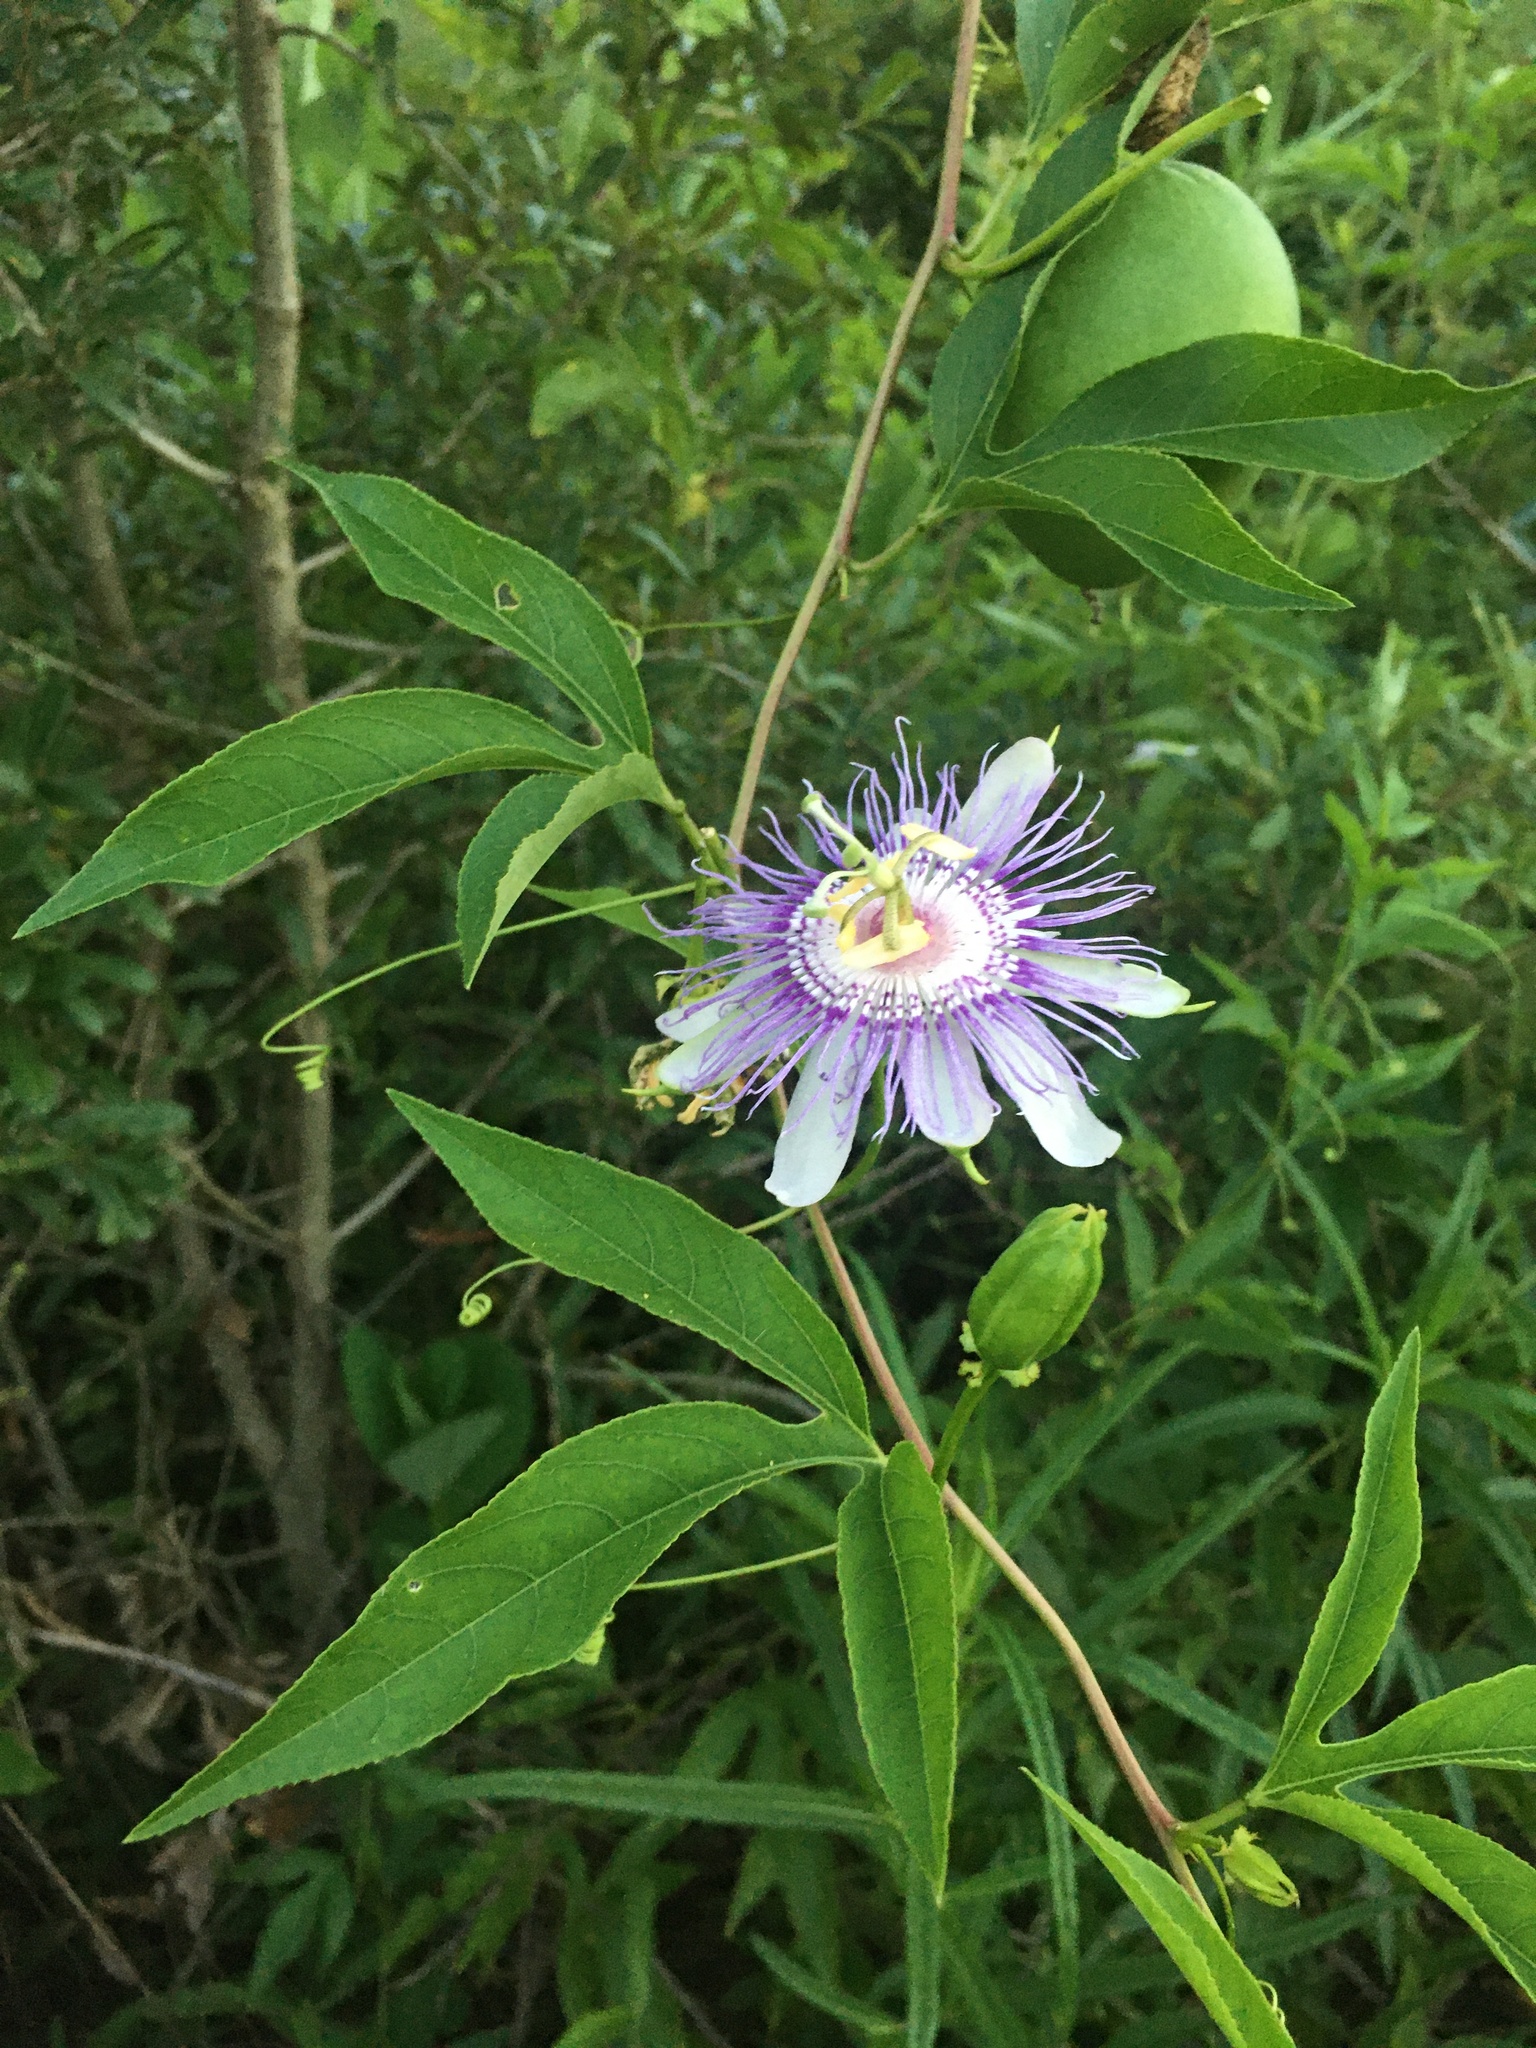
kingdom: Plantae
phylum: Tracheophyta
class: Magnoliopsida
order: Malpighiales
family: Passifloraceae
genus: Passiflora
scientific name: Passiflora incarnata
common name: Apricot-vine
